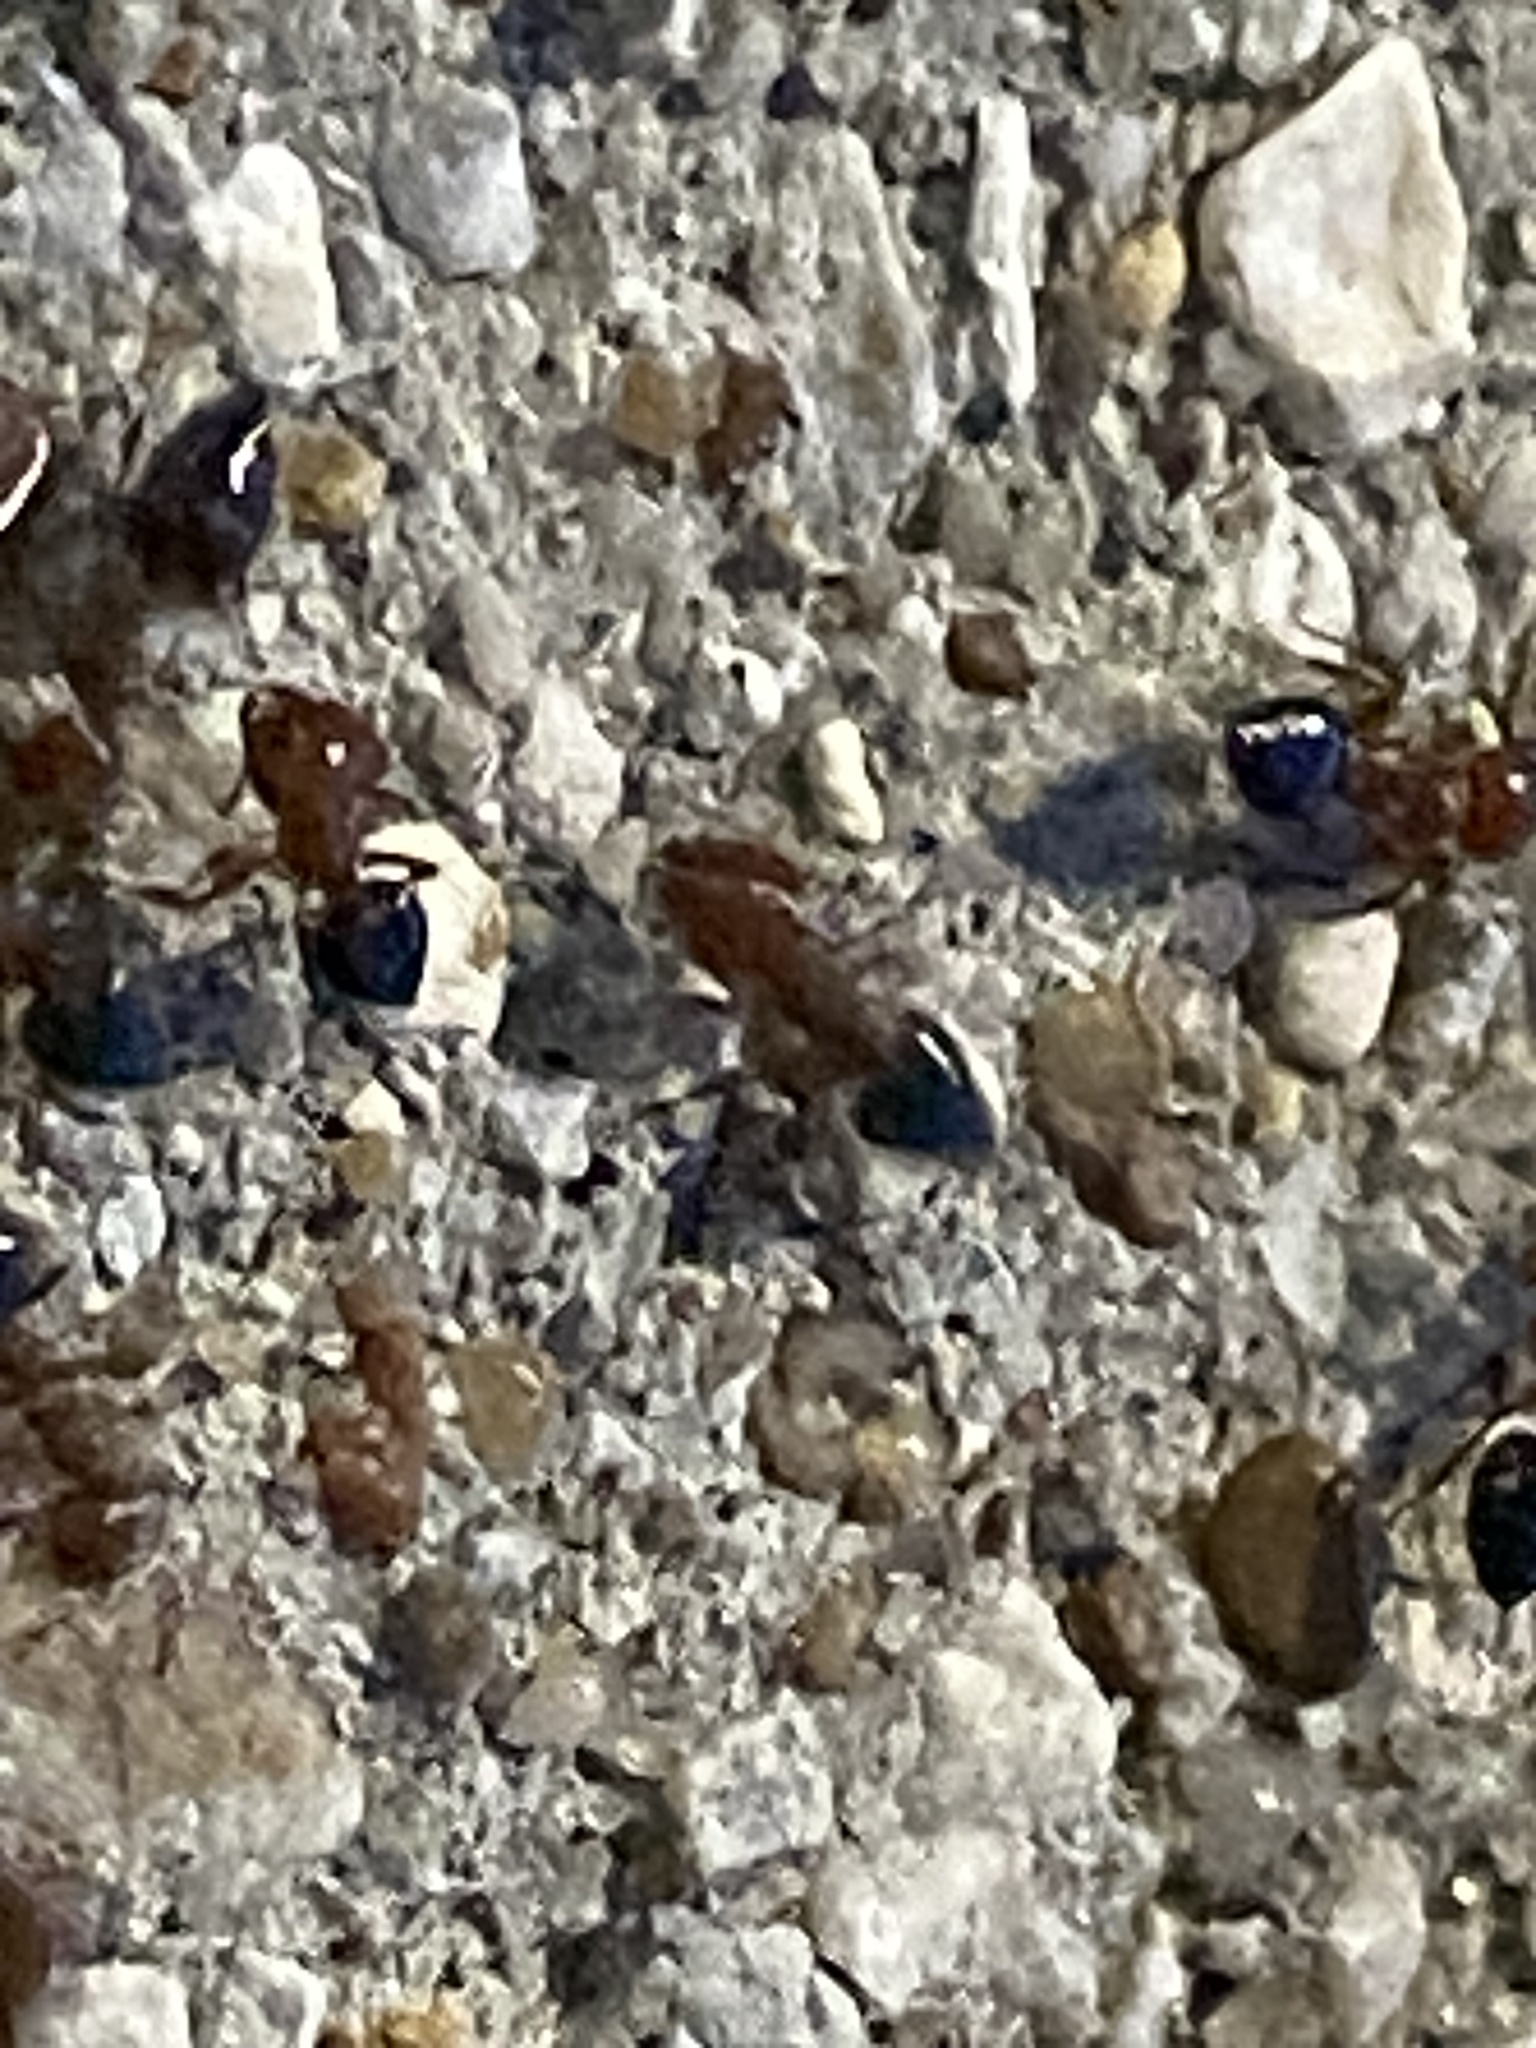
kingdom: Animalia
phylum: Arthropoda
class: Insecta
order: Hymenoptera
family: Formicidae
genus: Crematogaster
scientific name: Crematogaster laeviuscula
